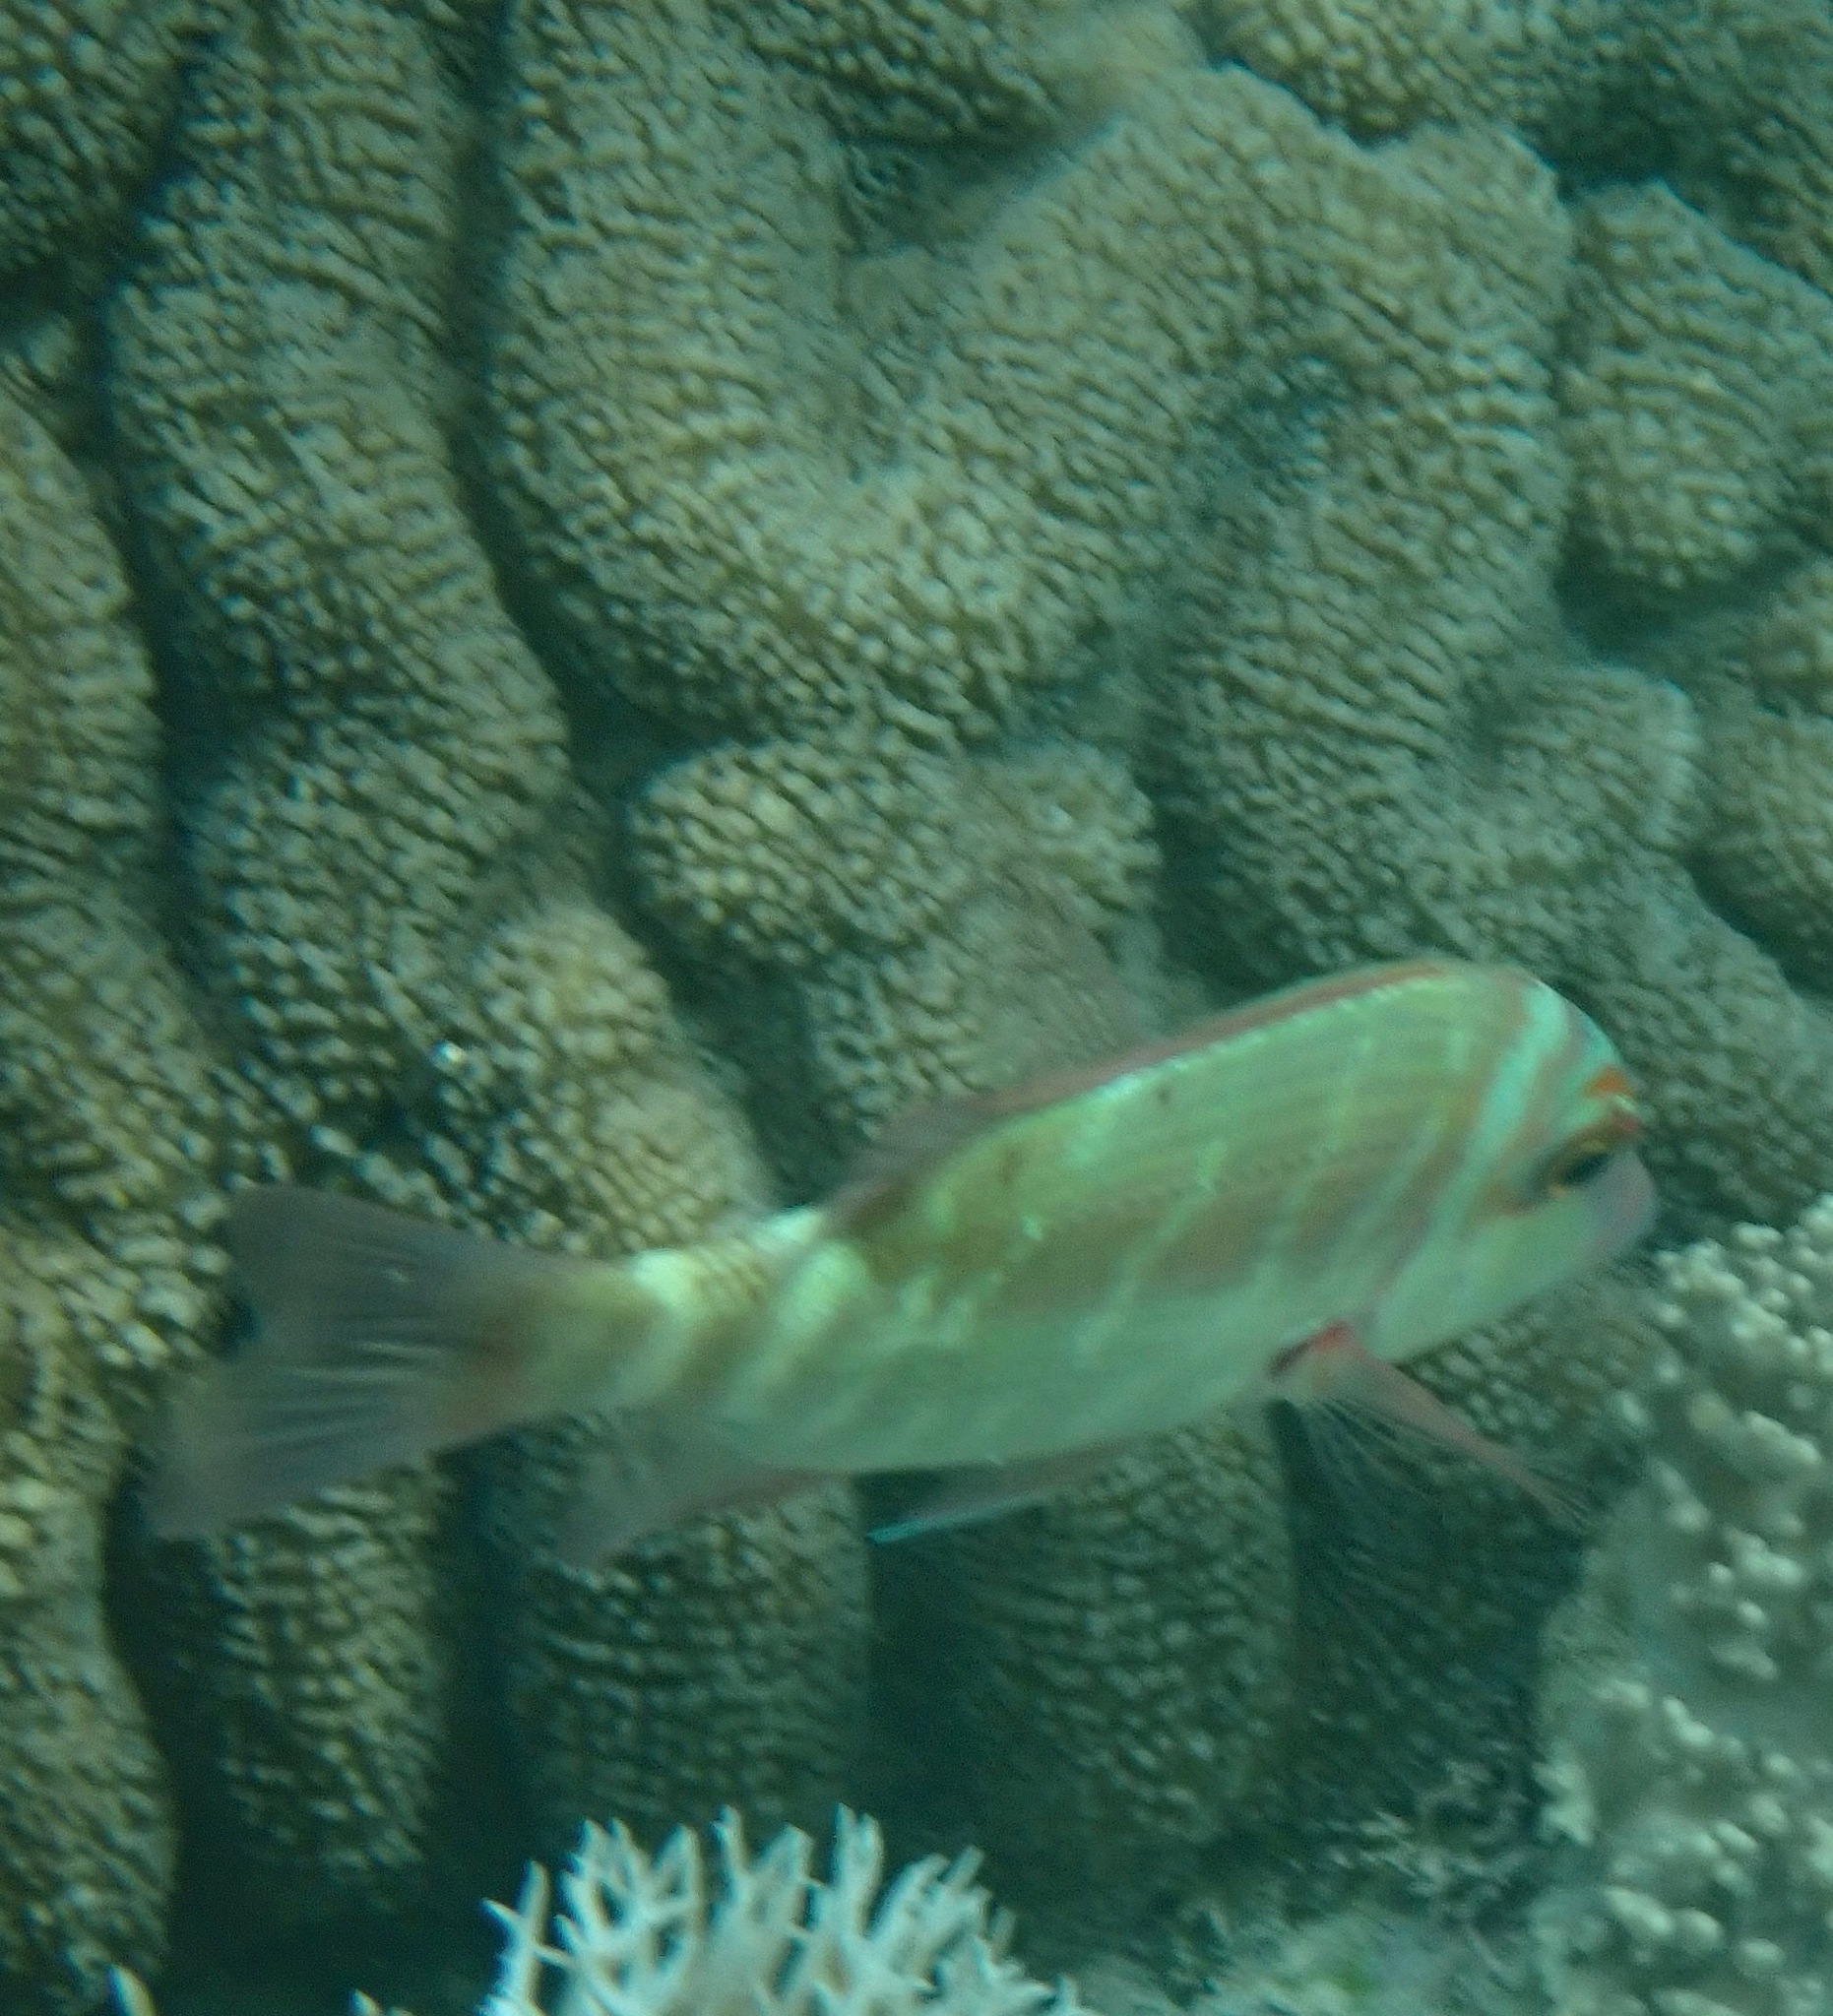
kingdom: Animalia
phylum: Chordata
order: Perciformes
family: Lethrinidae
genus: Lethrinus
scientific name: Lethrinus erythropterus
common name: Longfin emperor
